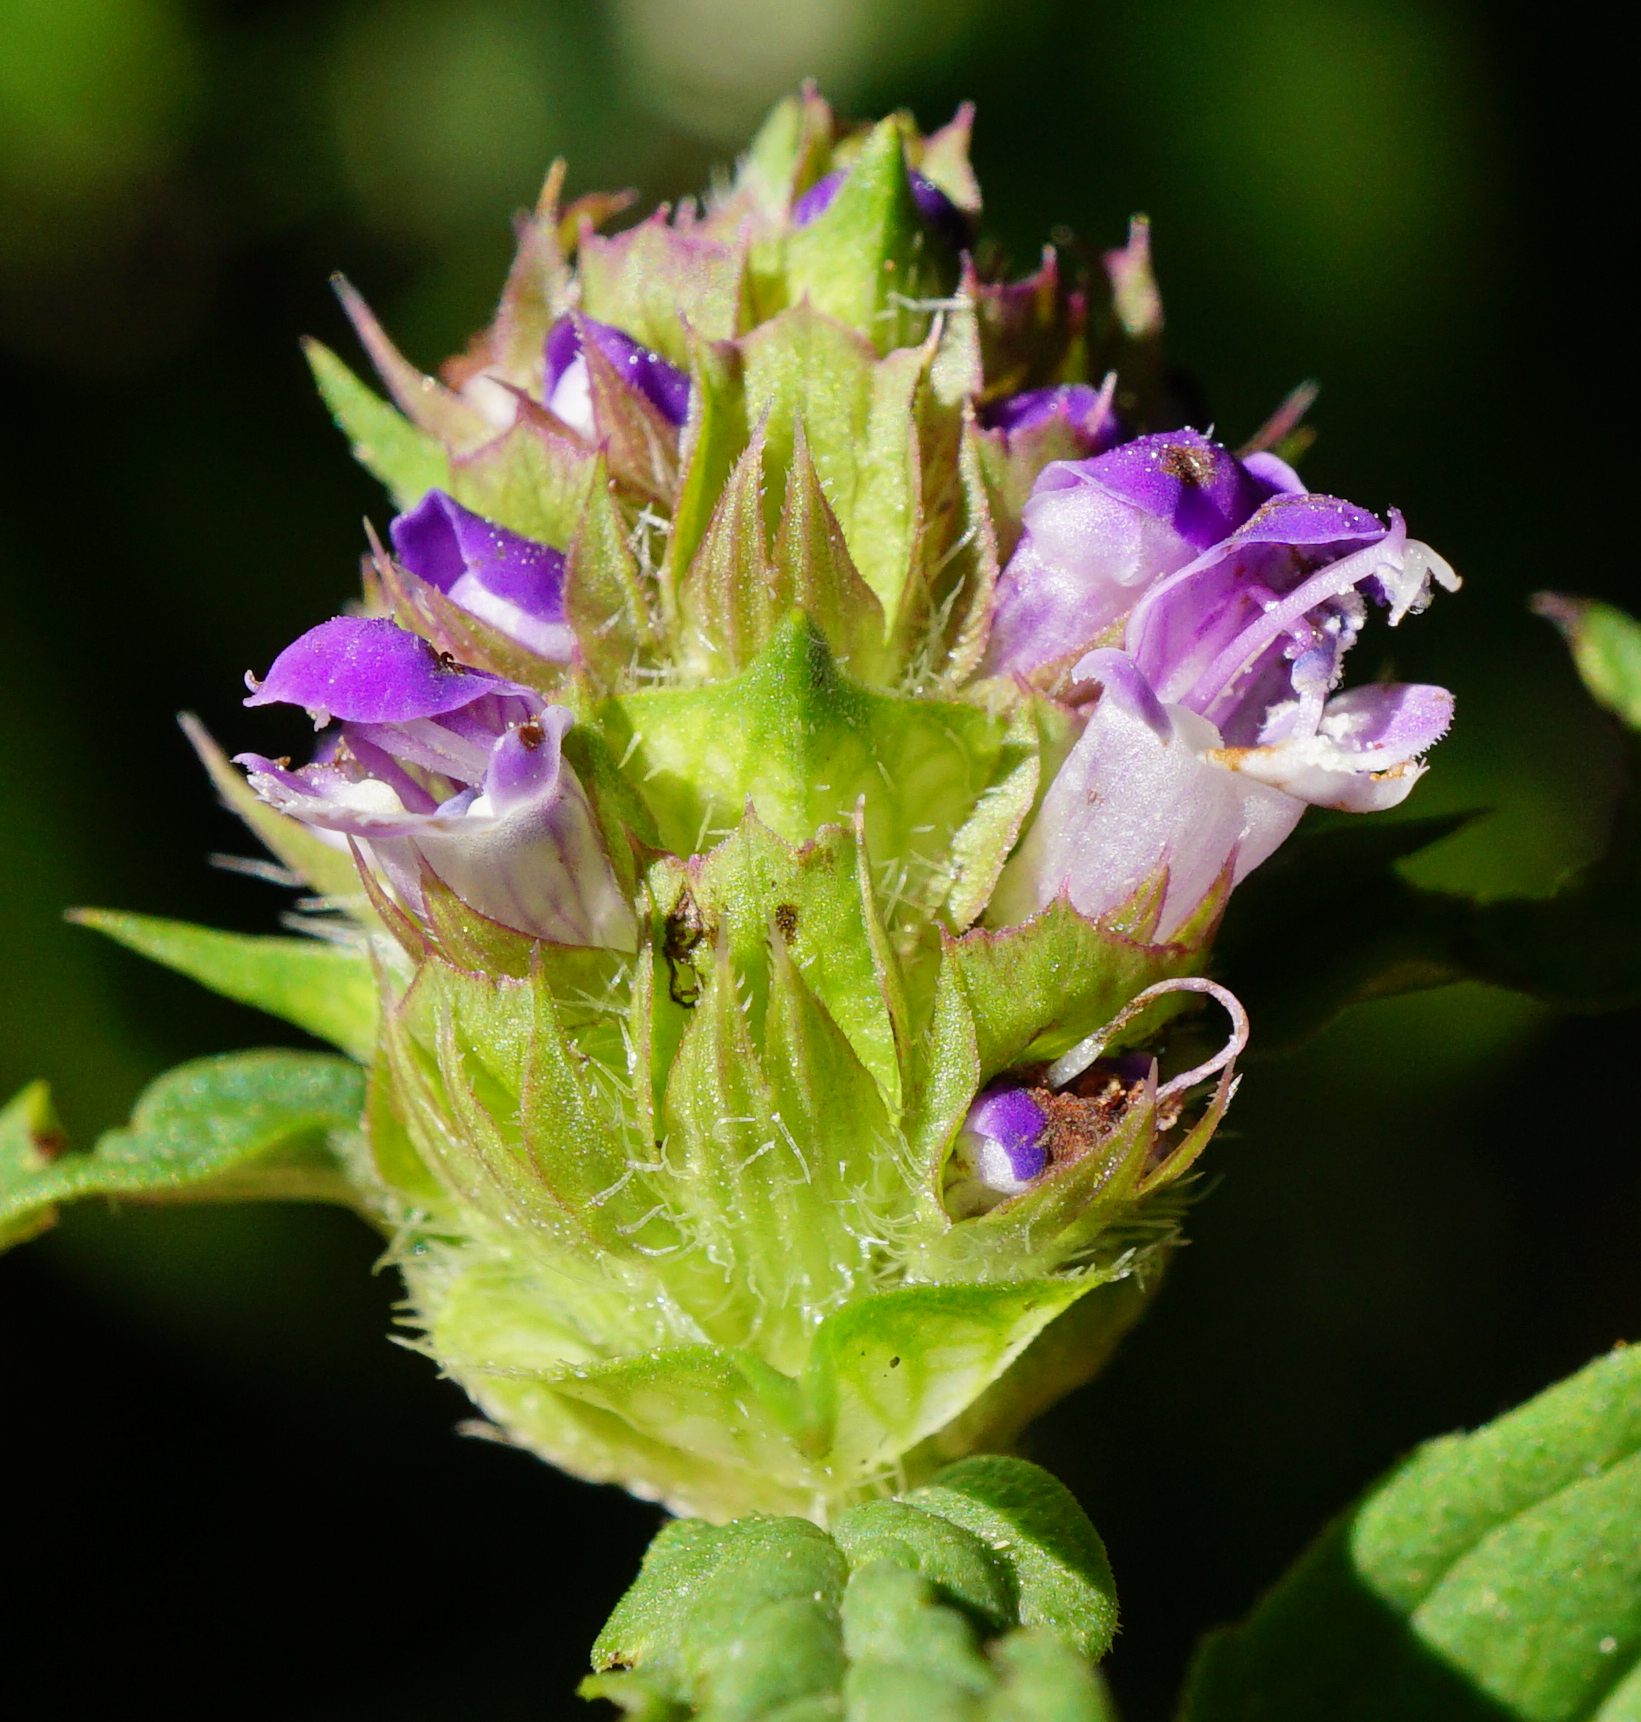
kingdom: Plantae
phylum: Tracheophyta
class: Magnoliopsida
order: Lamiales
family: Lamiaceae
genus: Prunella
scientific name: Prunella vulgaris
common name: Heal-all
